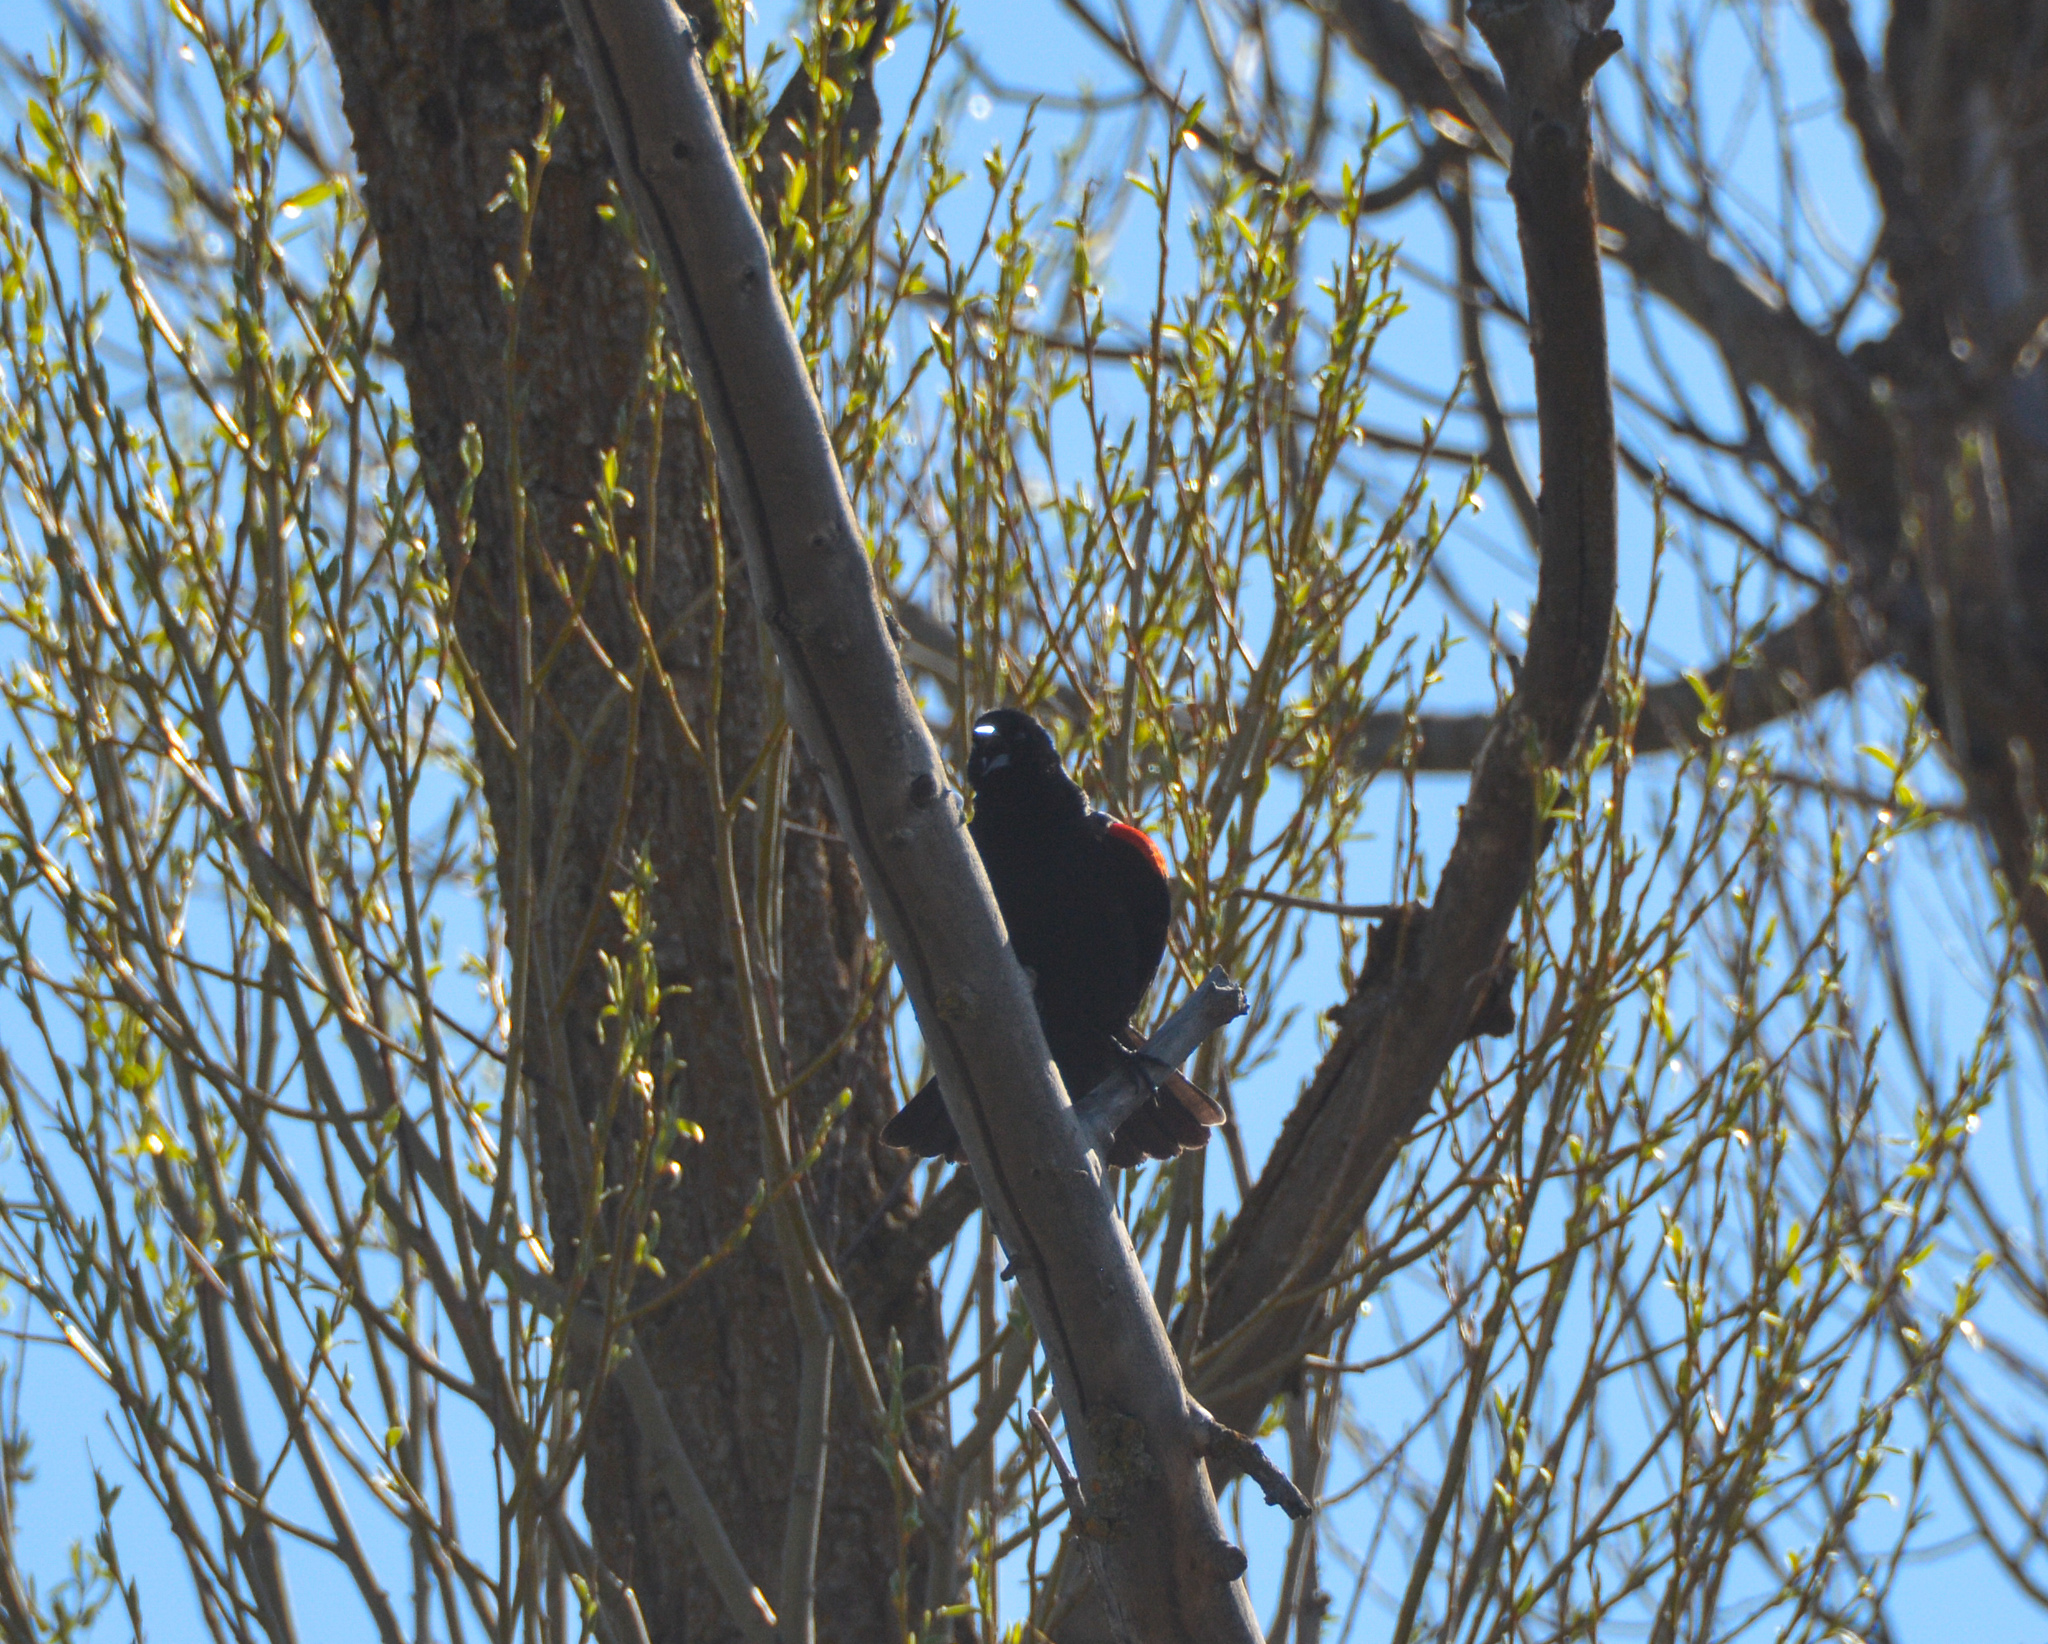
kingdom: Animalia
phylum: Chordata
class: Aves
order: Passeriformes
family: Icteridae
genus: Agelaius
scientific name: Agelaius phoeniceus
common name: Red-winged blackbird
